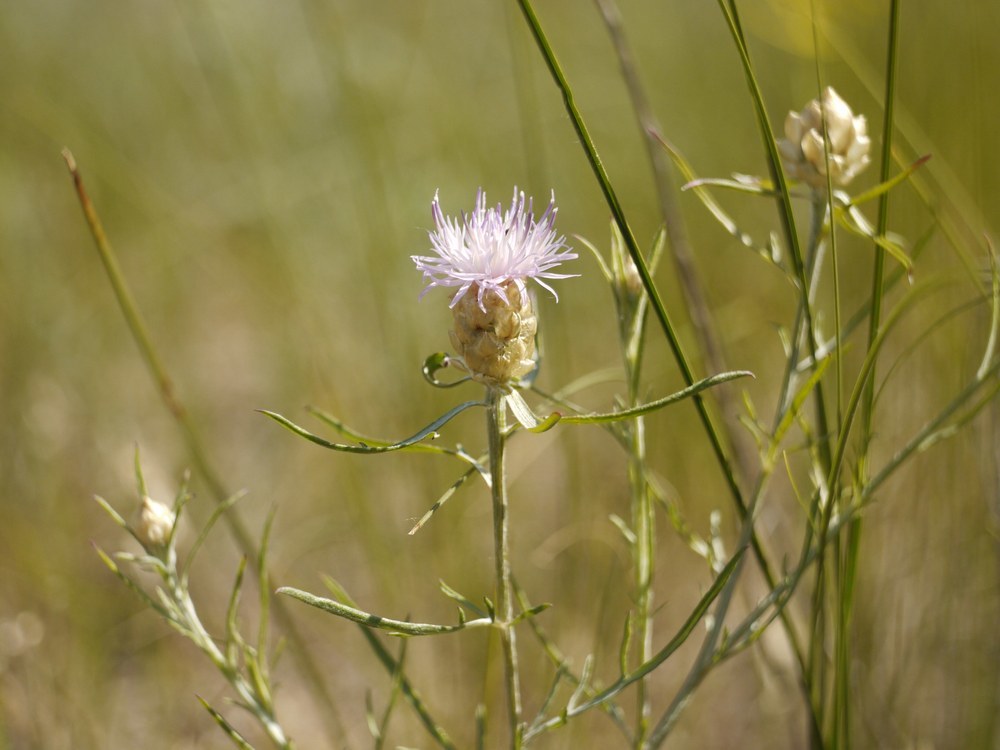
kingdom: Plantae
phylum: Tracheophyta
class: Magnoliopsida
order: Asterales
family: Asteraceae
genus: Centaurea
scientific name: Centaurea margaritalba
